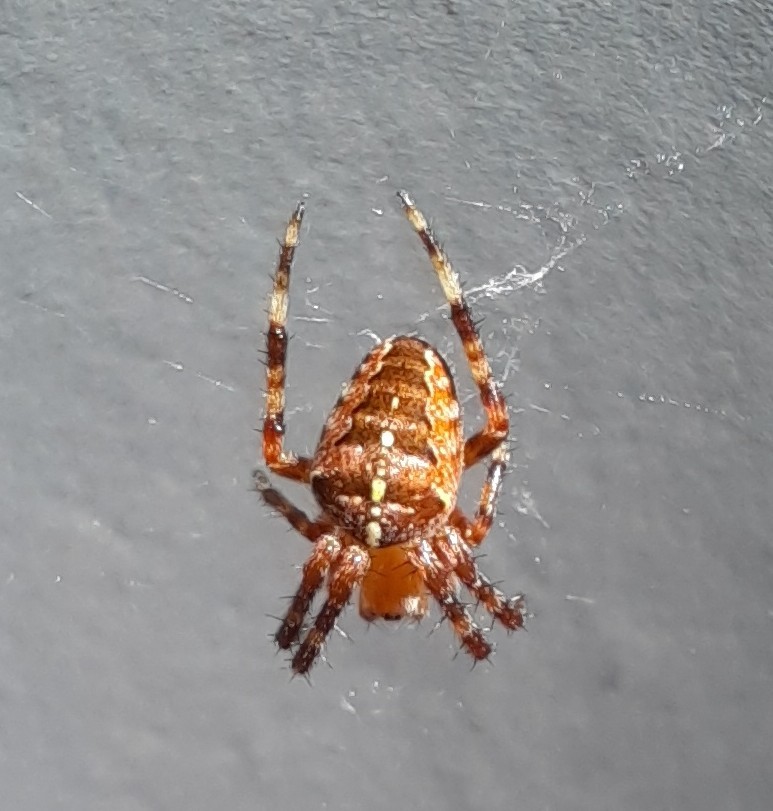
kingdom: Animalia
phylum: Arthropoda
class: Arachnida
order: Araneae
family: Araneidae
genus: Araneus
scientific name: Araneus diadematus
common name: Cross orbweaver
